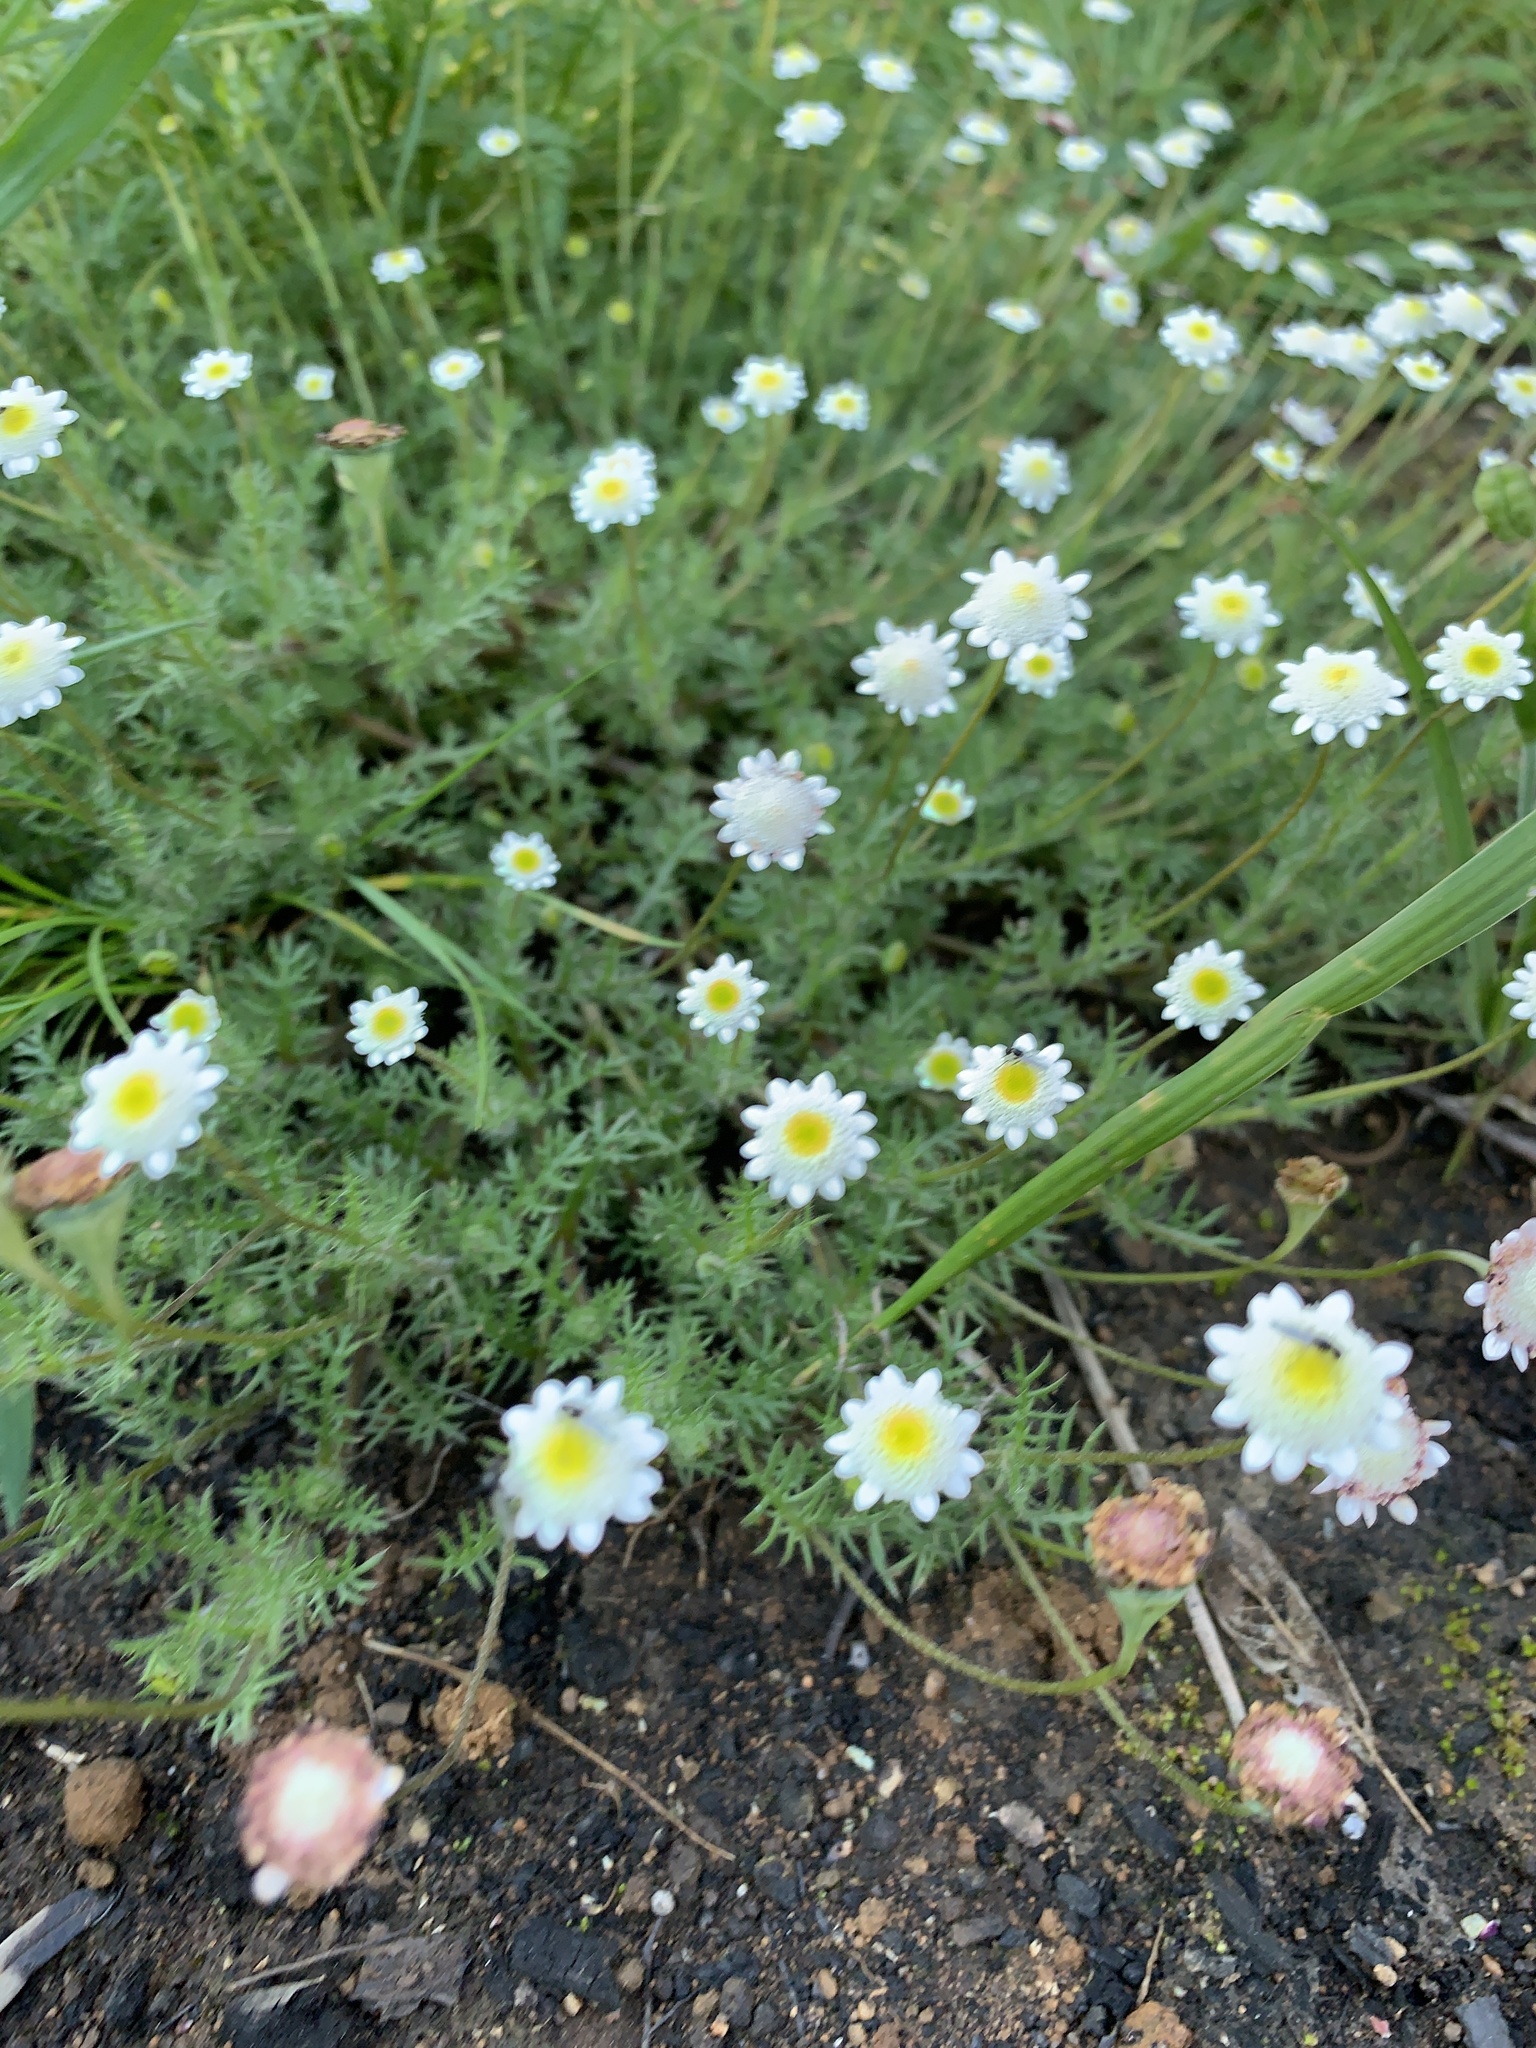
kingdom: Plantae
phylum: Tracheophyta
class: Magnoliopsida
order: Asterales
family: Asteraceae
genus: Cotula
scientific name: Cotula turbinata
